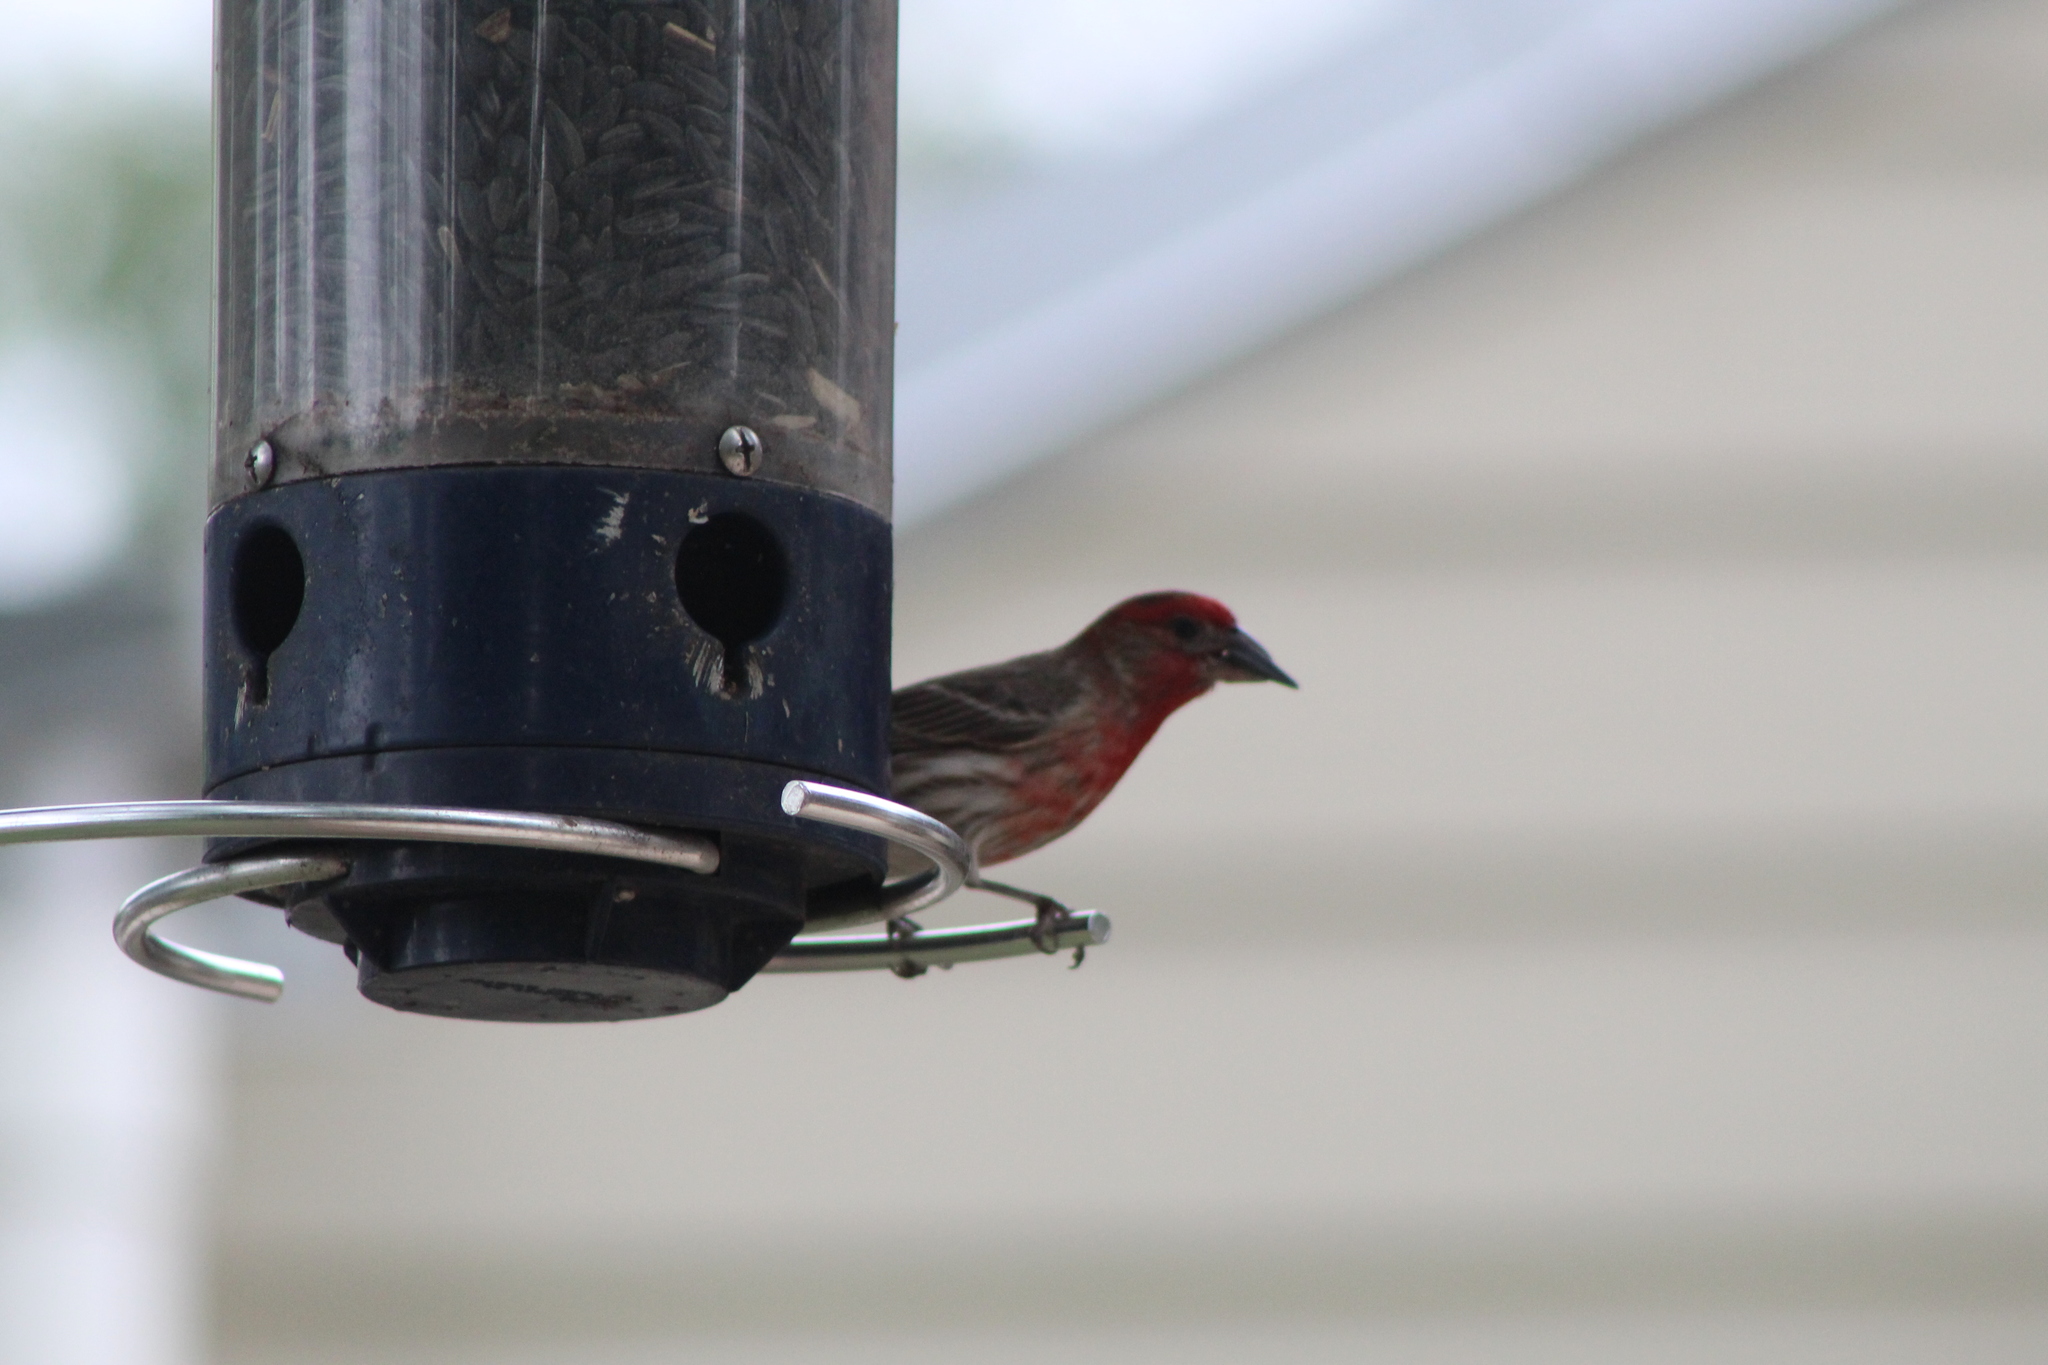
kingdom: Animalia
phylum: Chordata
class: Aves
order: Passeriformes
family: Fringillidae
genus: Haemorhous
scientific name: Haemorhous mexicanus
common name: House finch
